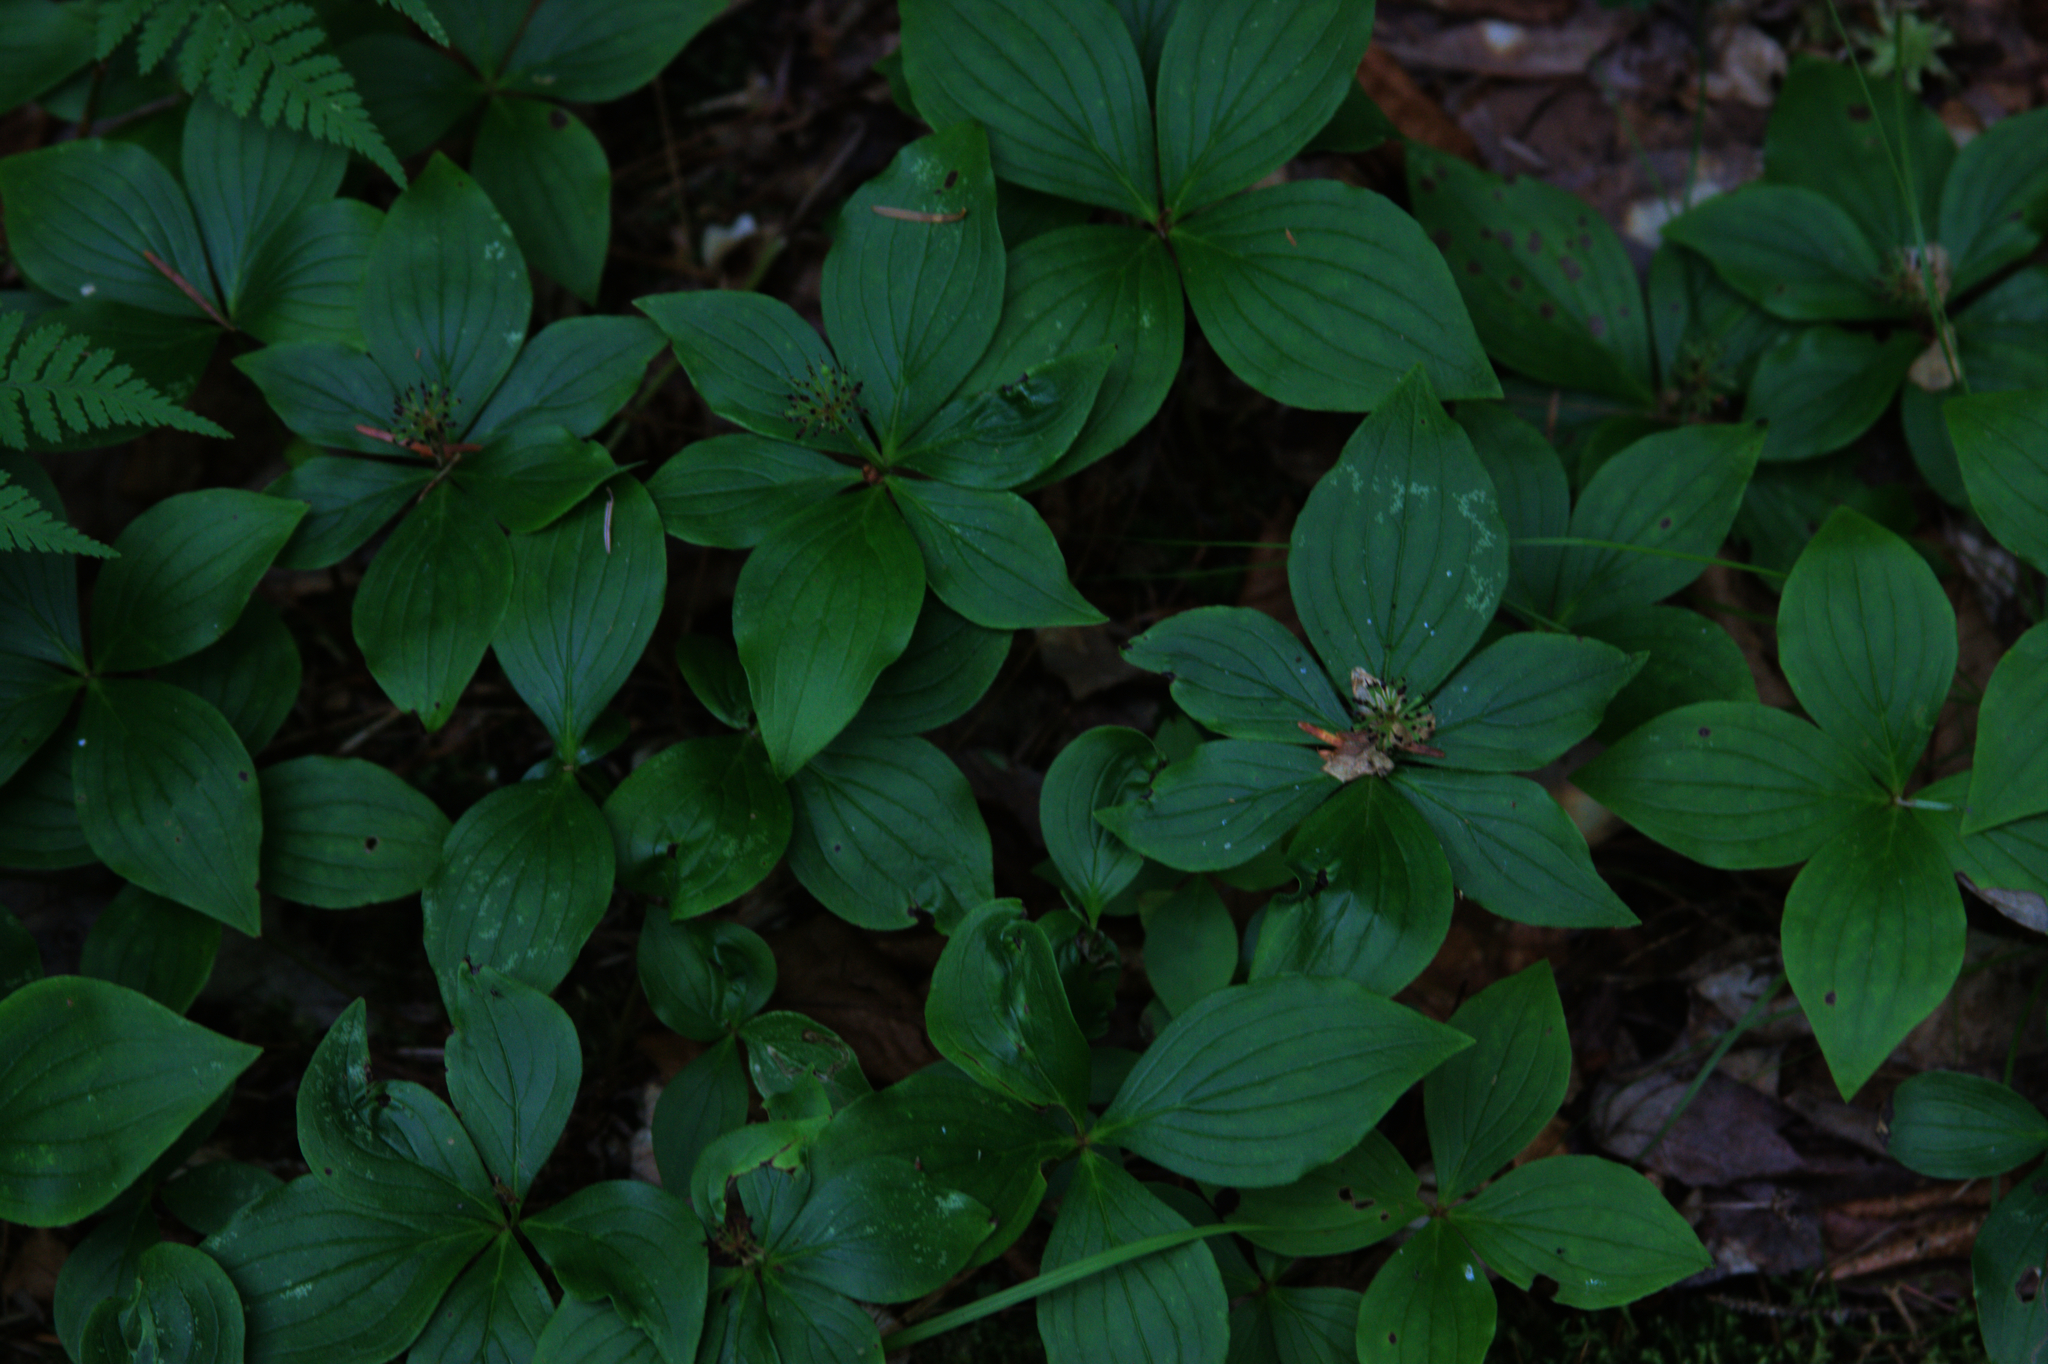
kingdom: Plantae
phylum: Tracheophyta
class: Magnoliopsida
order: Cornales
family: Cornaceae
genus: Cornus
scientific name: Cornus canadensis
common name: Creeping dogwood
